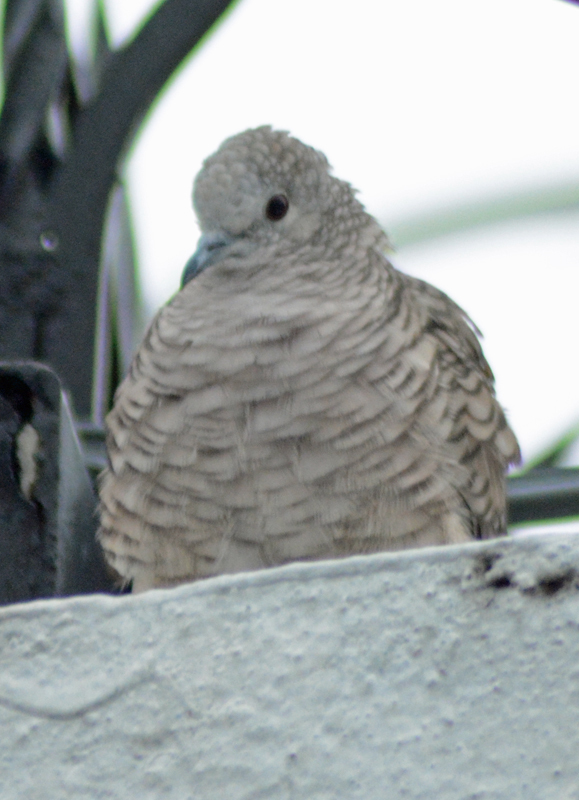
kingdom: Animalia
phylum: Chordata
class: Aves
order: Columbiformes
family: Columbidae
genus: Columbina
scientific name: Columbina inca
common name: Inca dove
